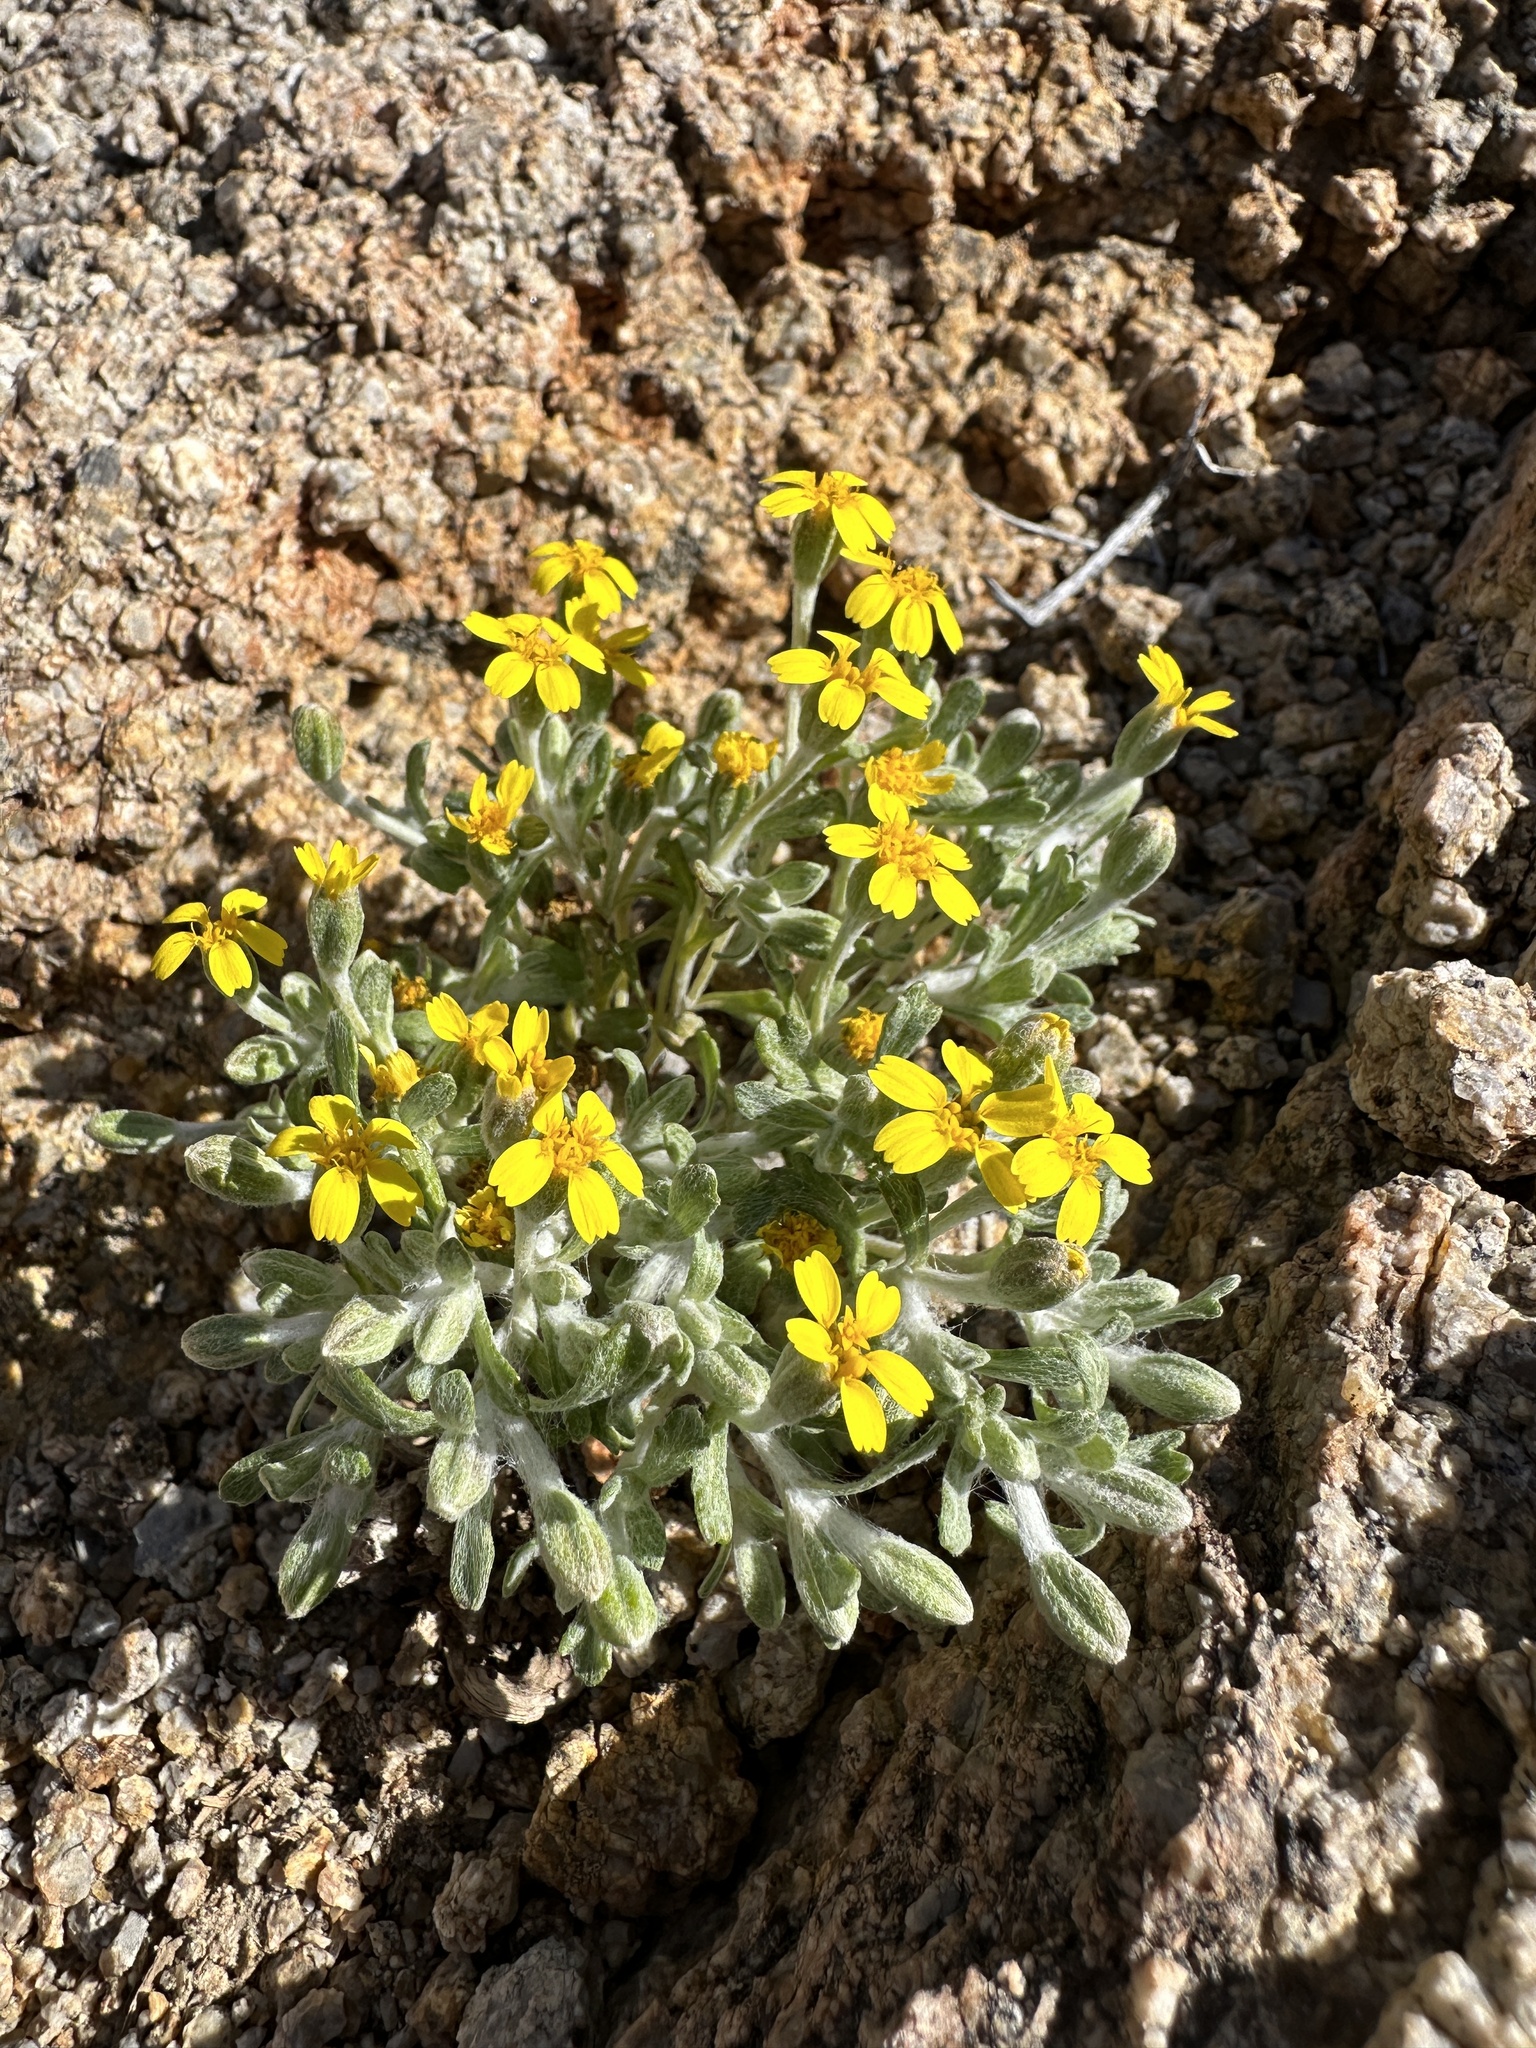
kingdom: Plantae
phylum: Tracheophyta
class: Magnoliopsida
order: Asterales
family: Asteraceae
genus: Syntrichopappus
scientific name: Syntrichopappus fremontii
